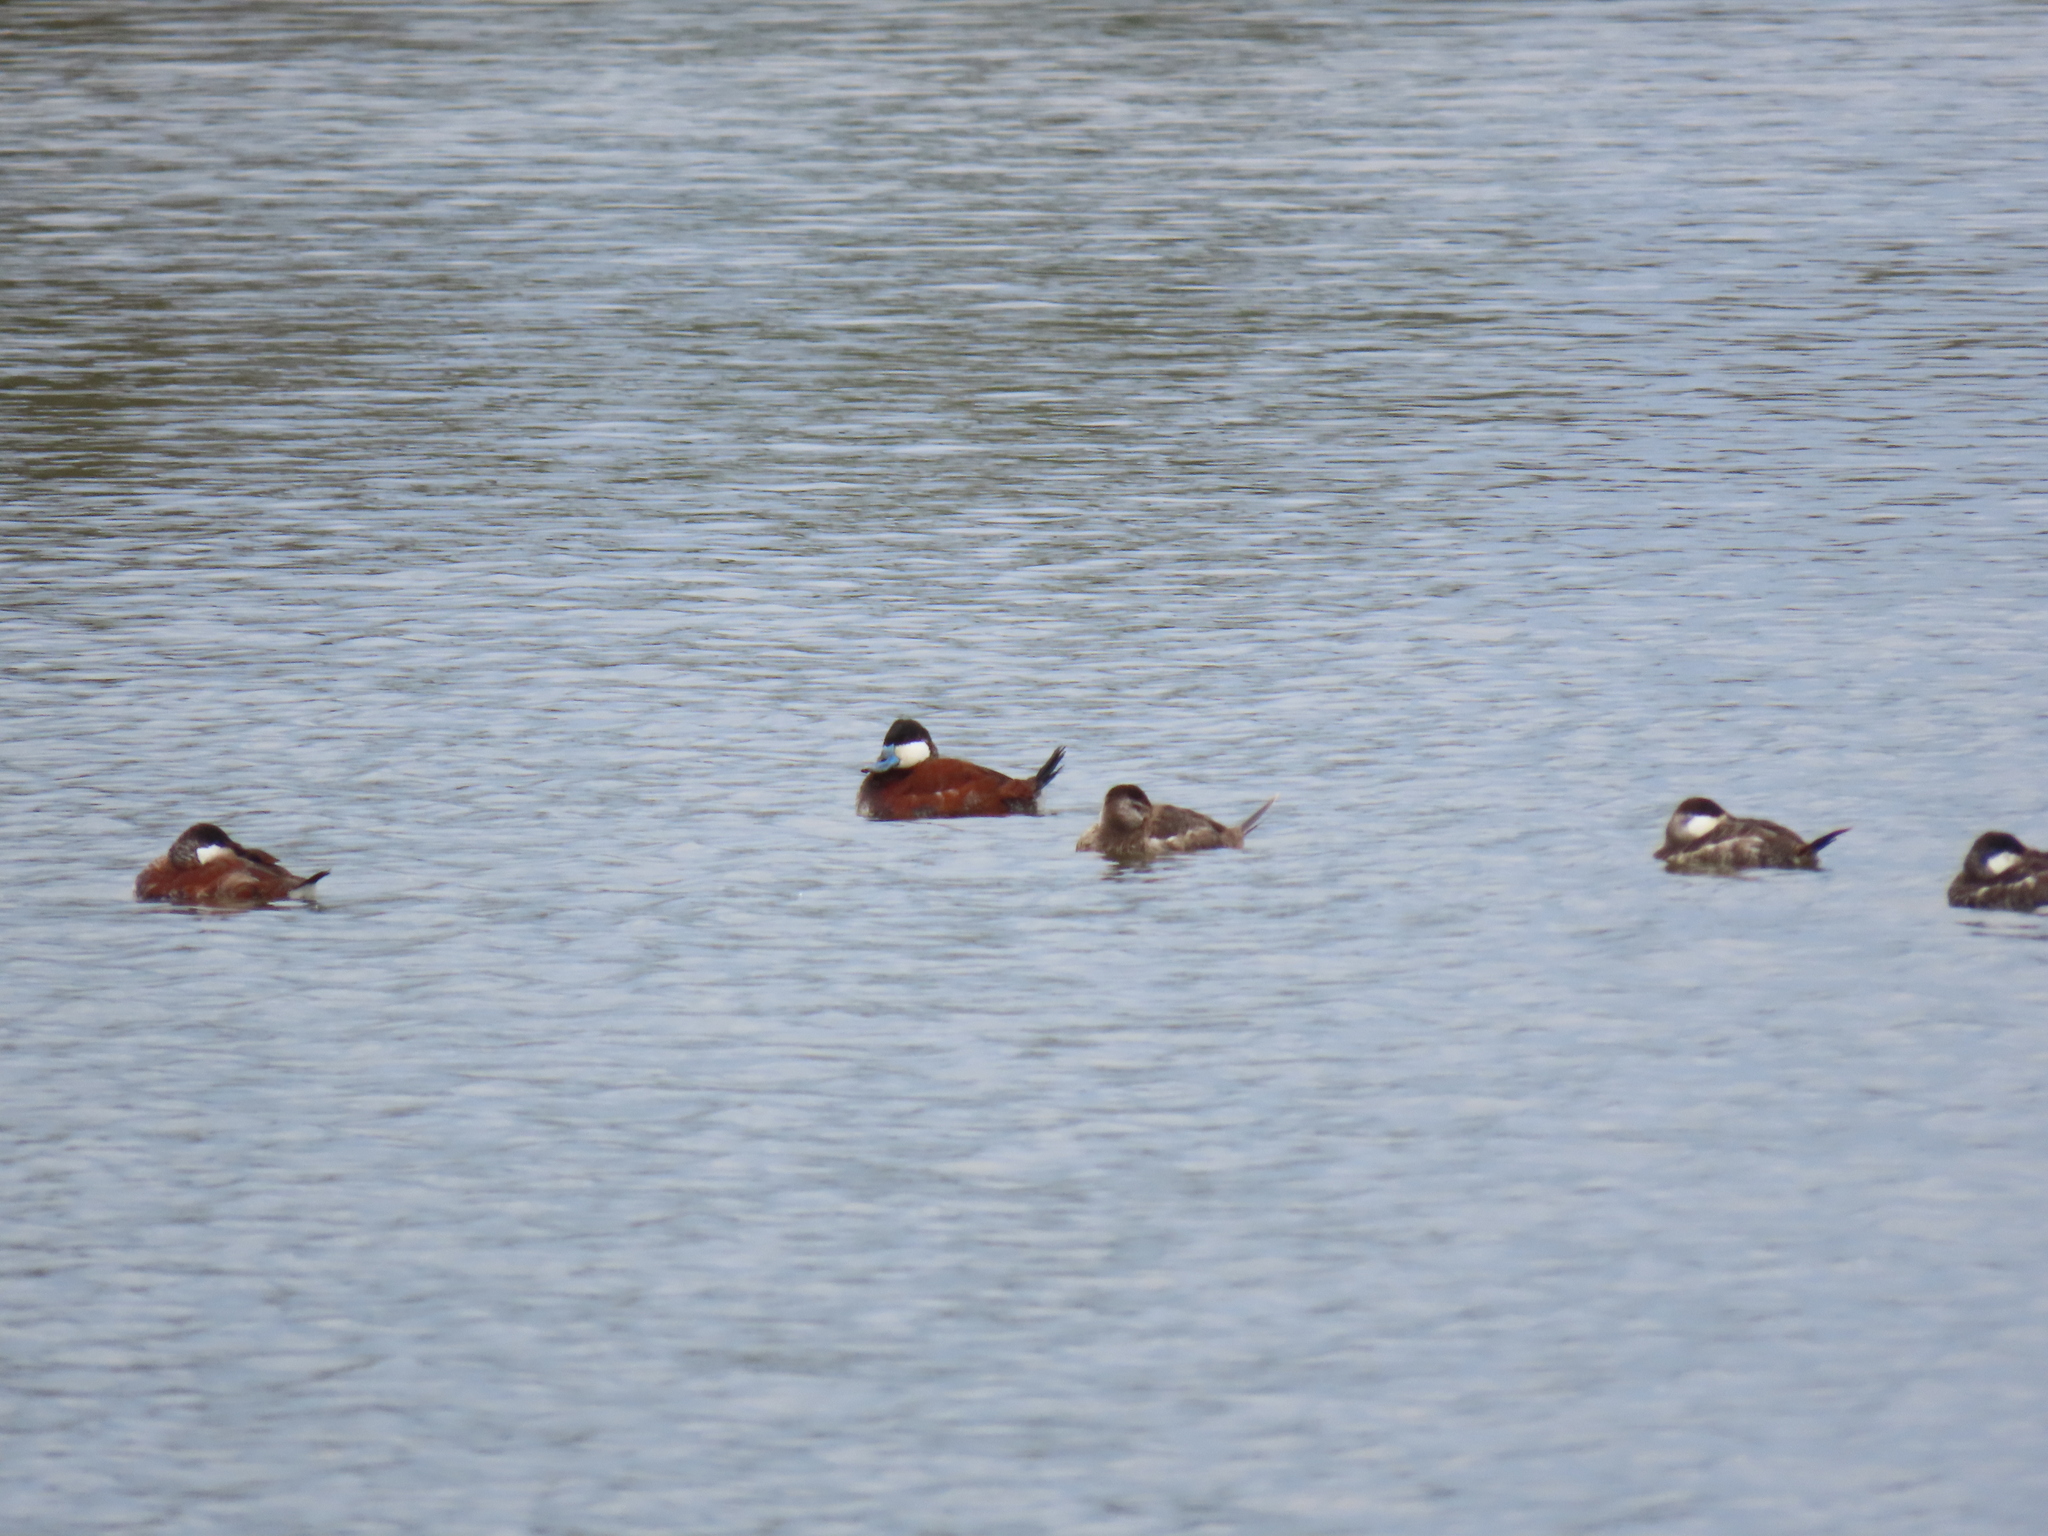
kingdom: Animalia
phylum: Chordata
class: Aves
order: Anseriformes
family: Anatidae
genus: Oxyura
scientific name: Oxyura jamaicensis
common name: Ruddy duck
